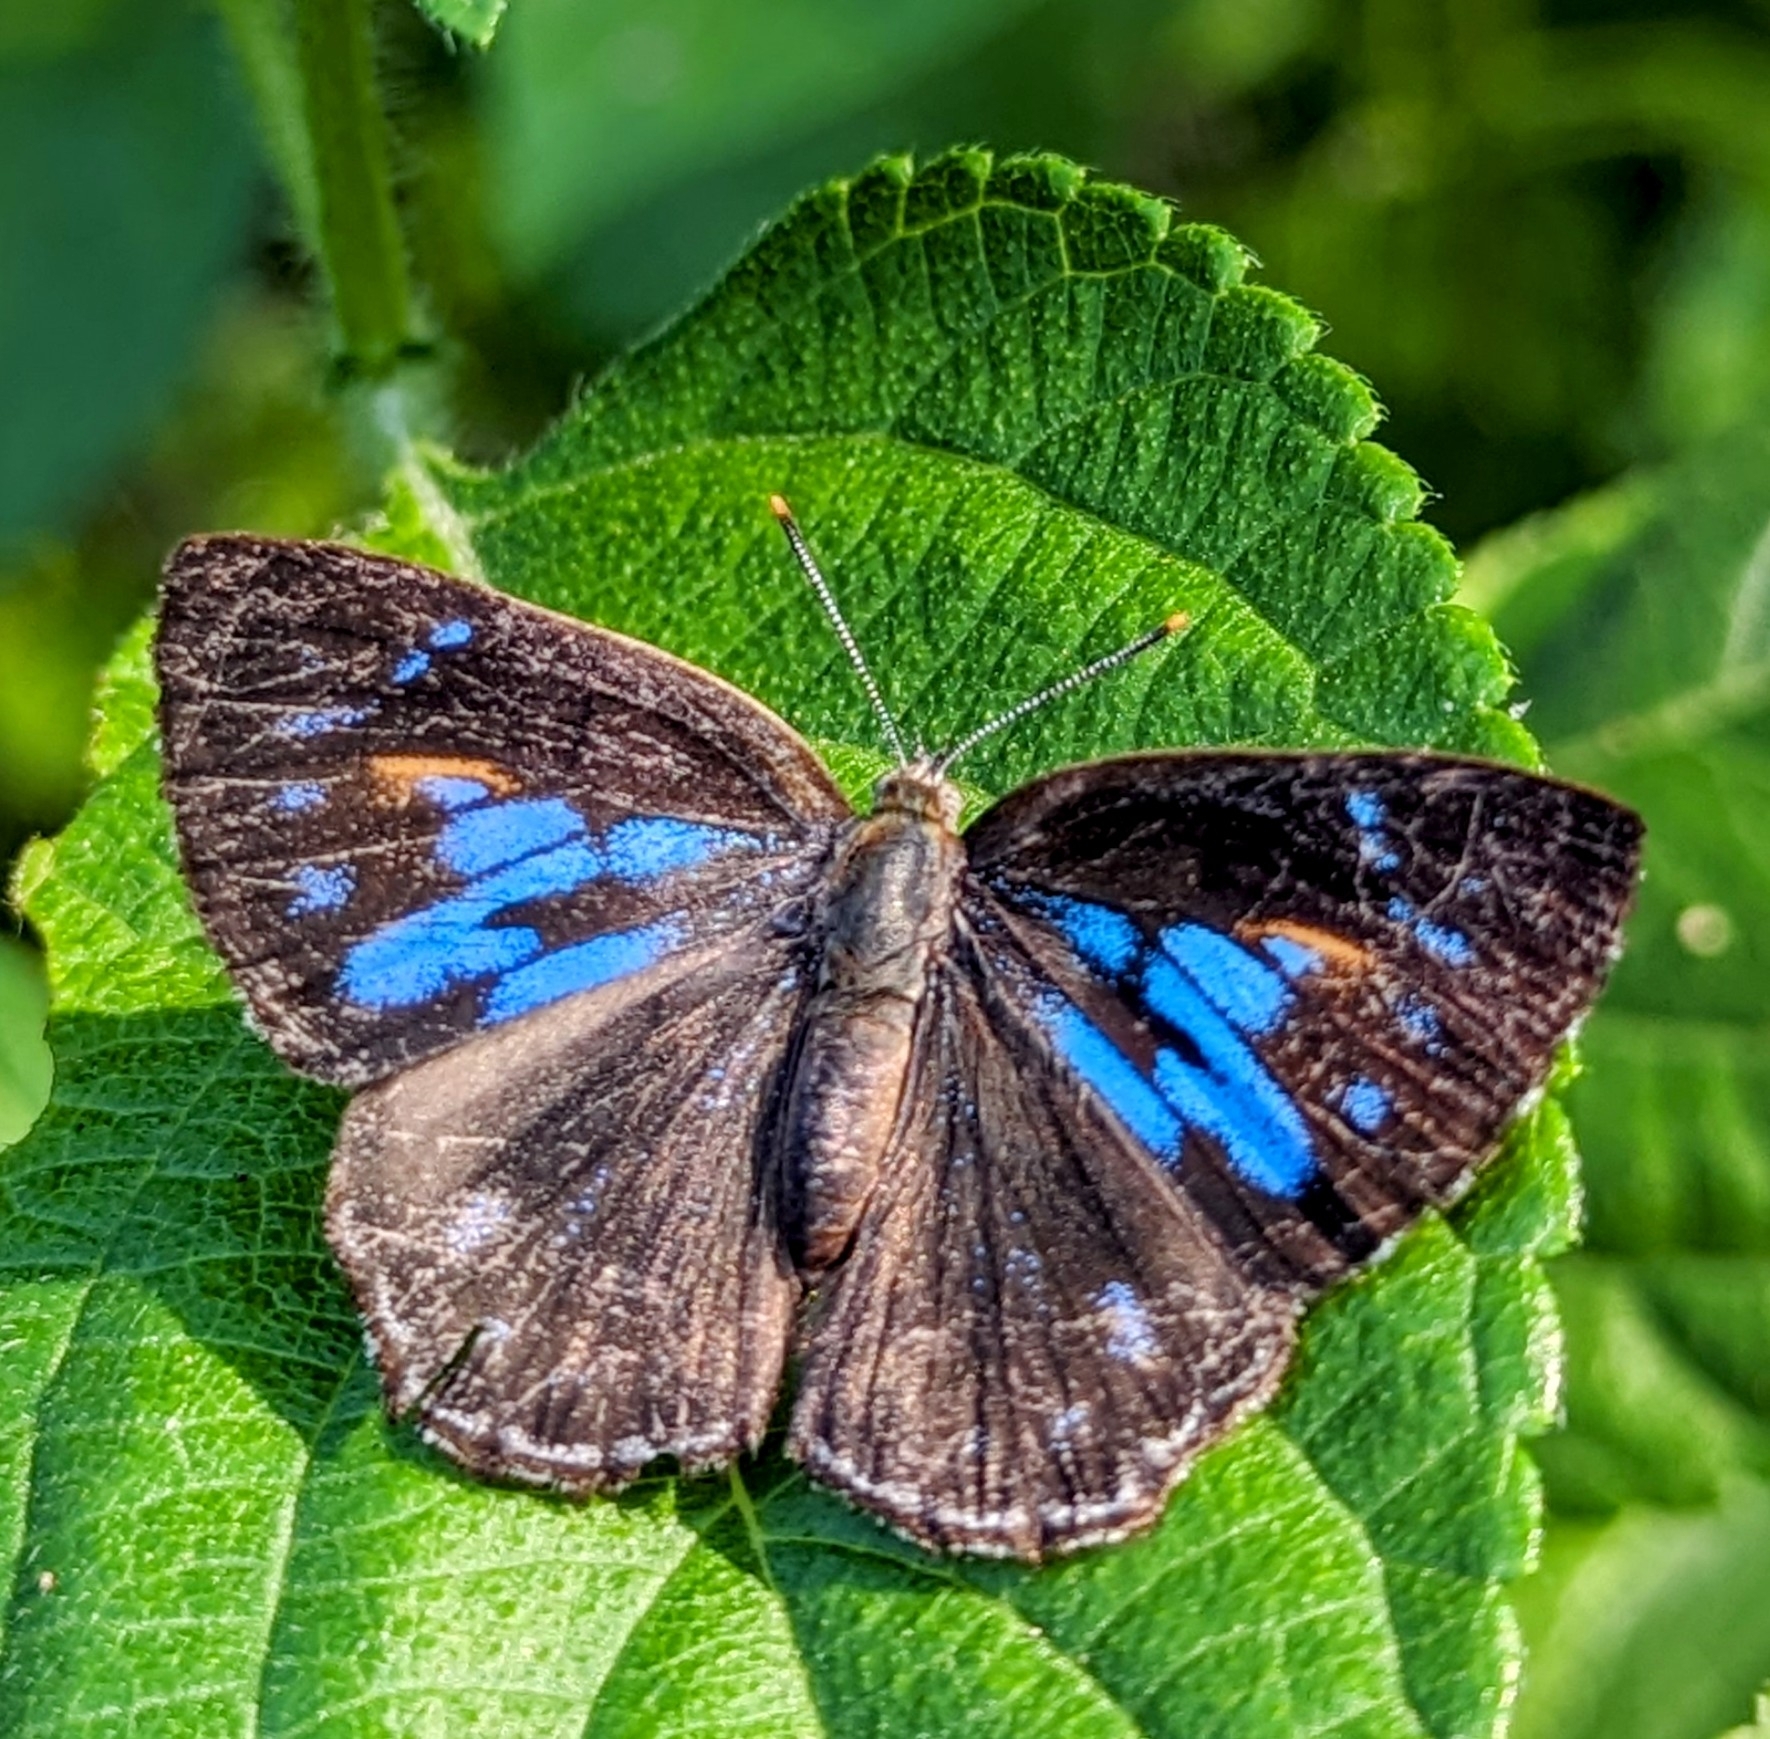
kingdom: Animalia
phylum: Arthropoda
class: Insecta
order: Lepidoptera
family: Lycaenidae
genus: Poritia
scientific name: Poritia hewitsoni
